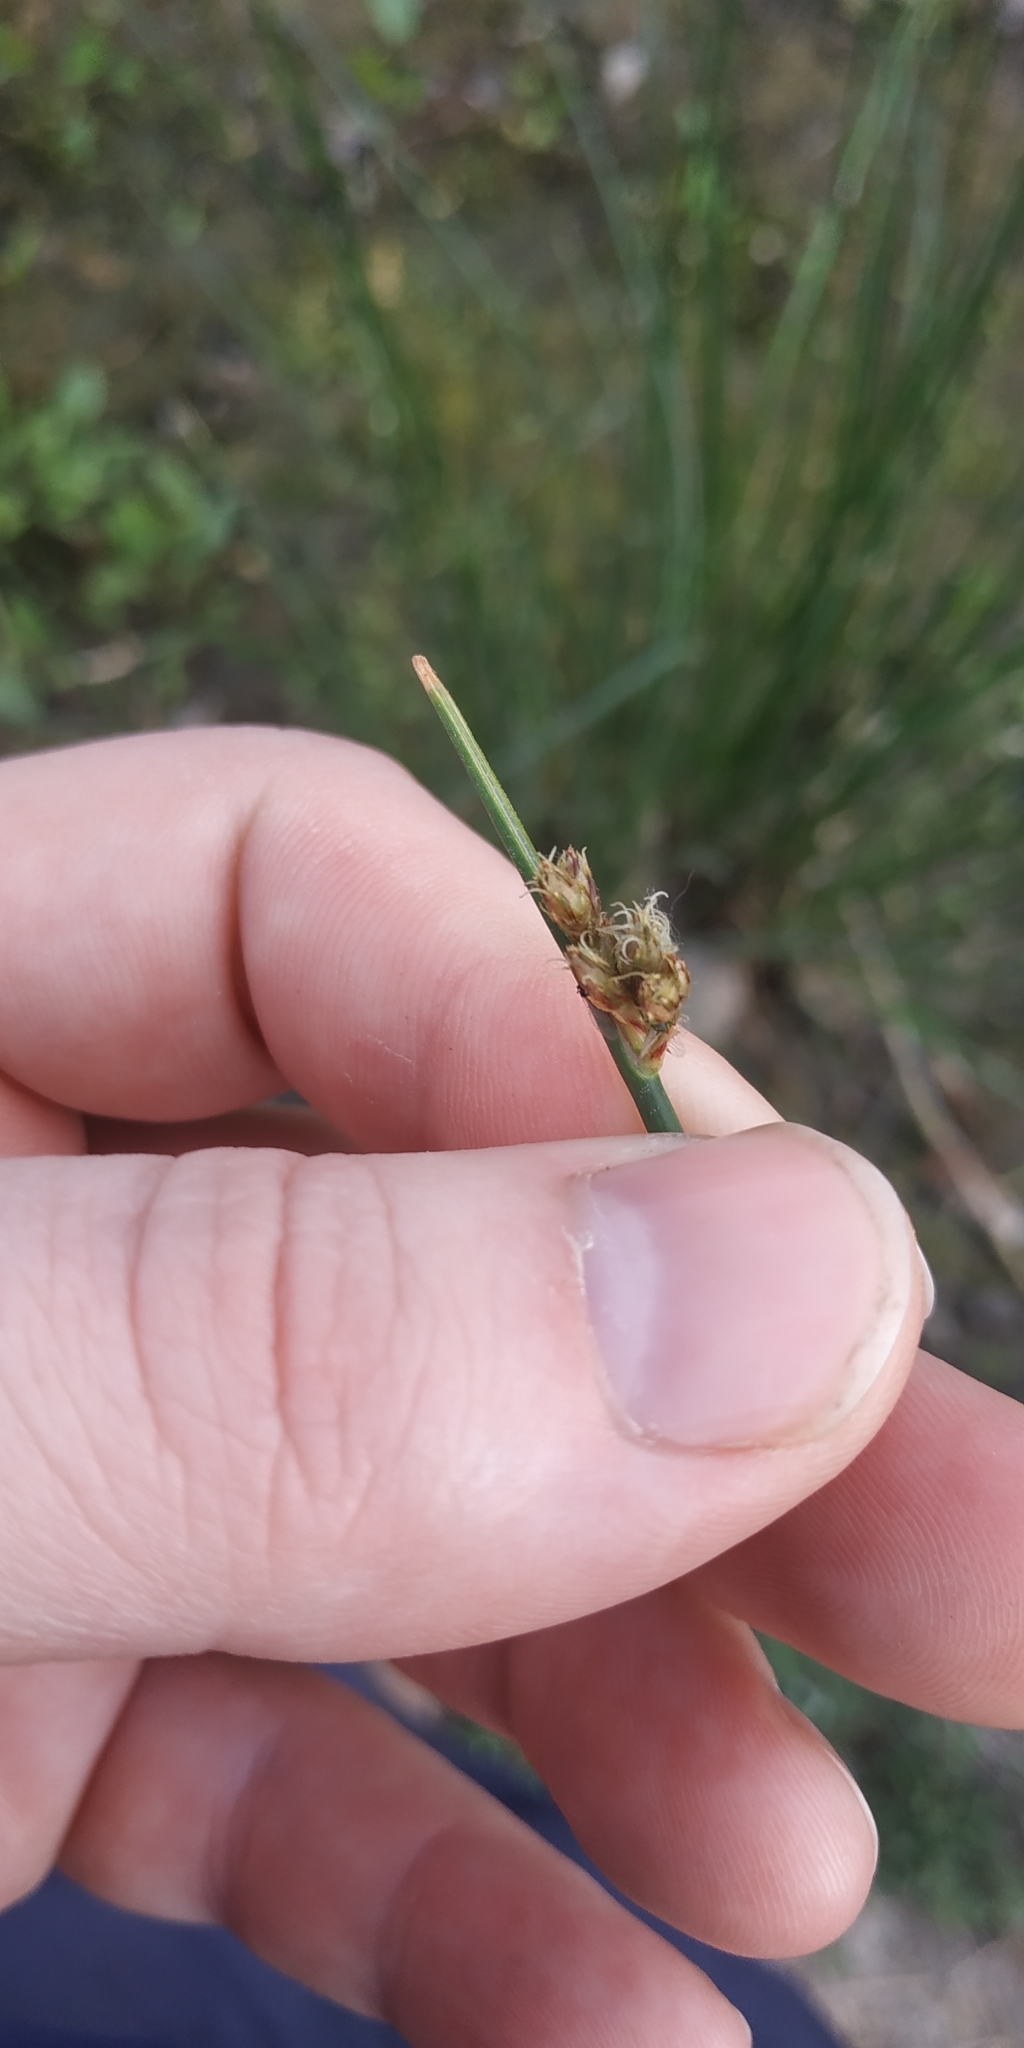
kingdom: Plantae
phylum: Tracheophyta
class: Liliopsida
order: Poales
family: Cyperaceae
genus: Schoenoplectus
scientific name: Schoenoplectus lacustris
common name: Common club-rush
